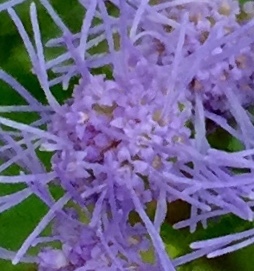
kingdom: Plantae
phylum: Tracheophyta
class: Magnoliopsida
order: Asterales
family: Asteraceae
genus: Conoclinium
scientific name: Conoclinium coelestinum
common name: Blue mistflower
